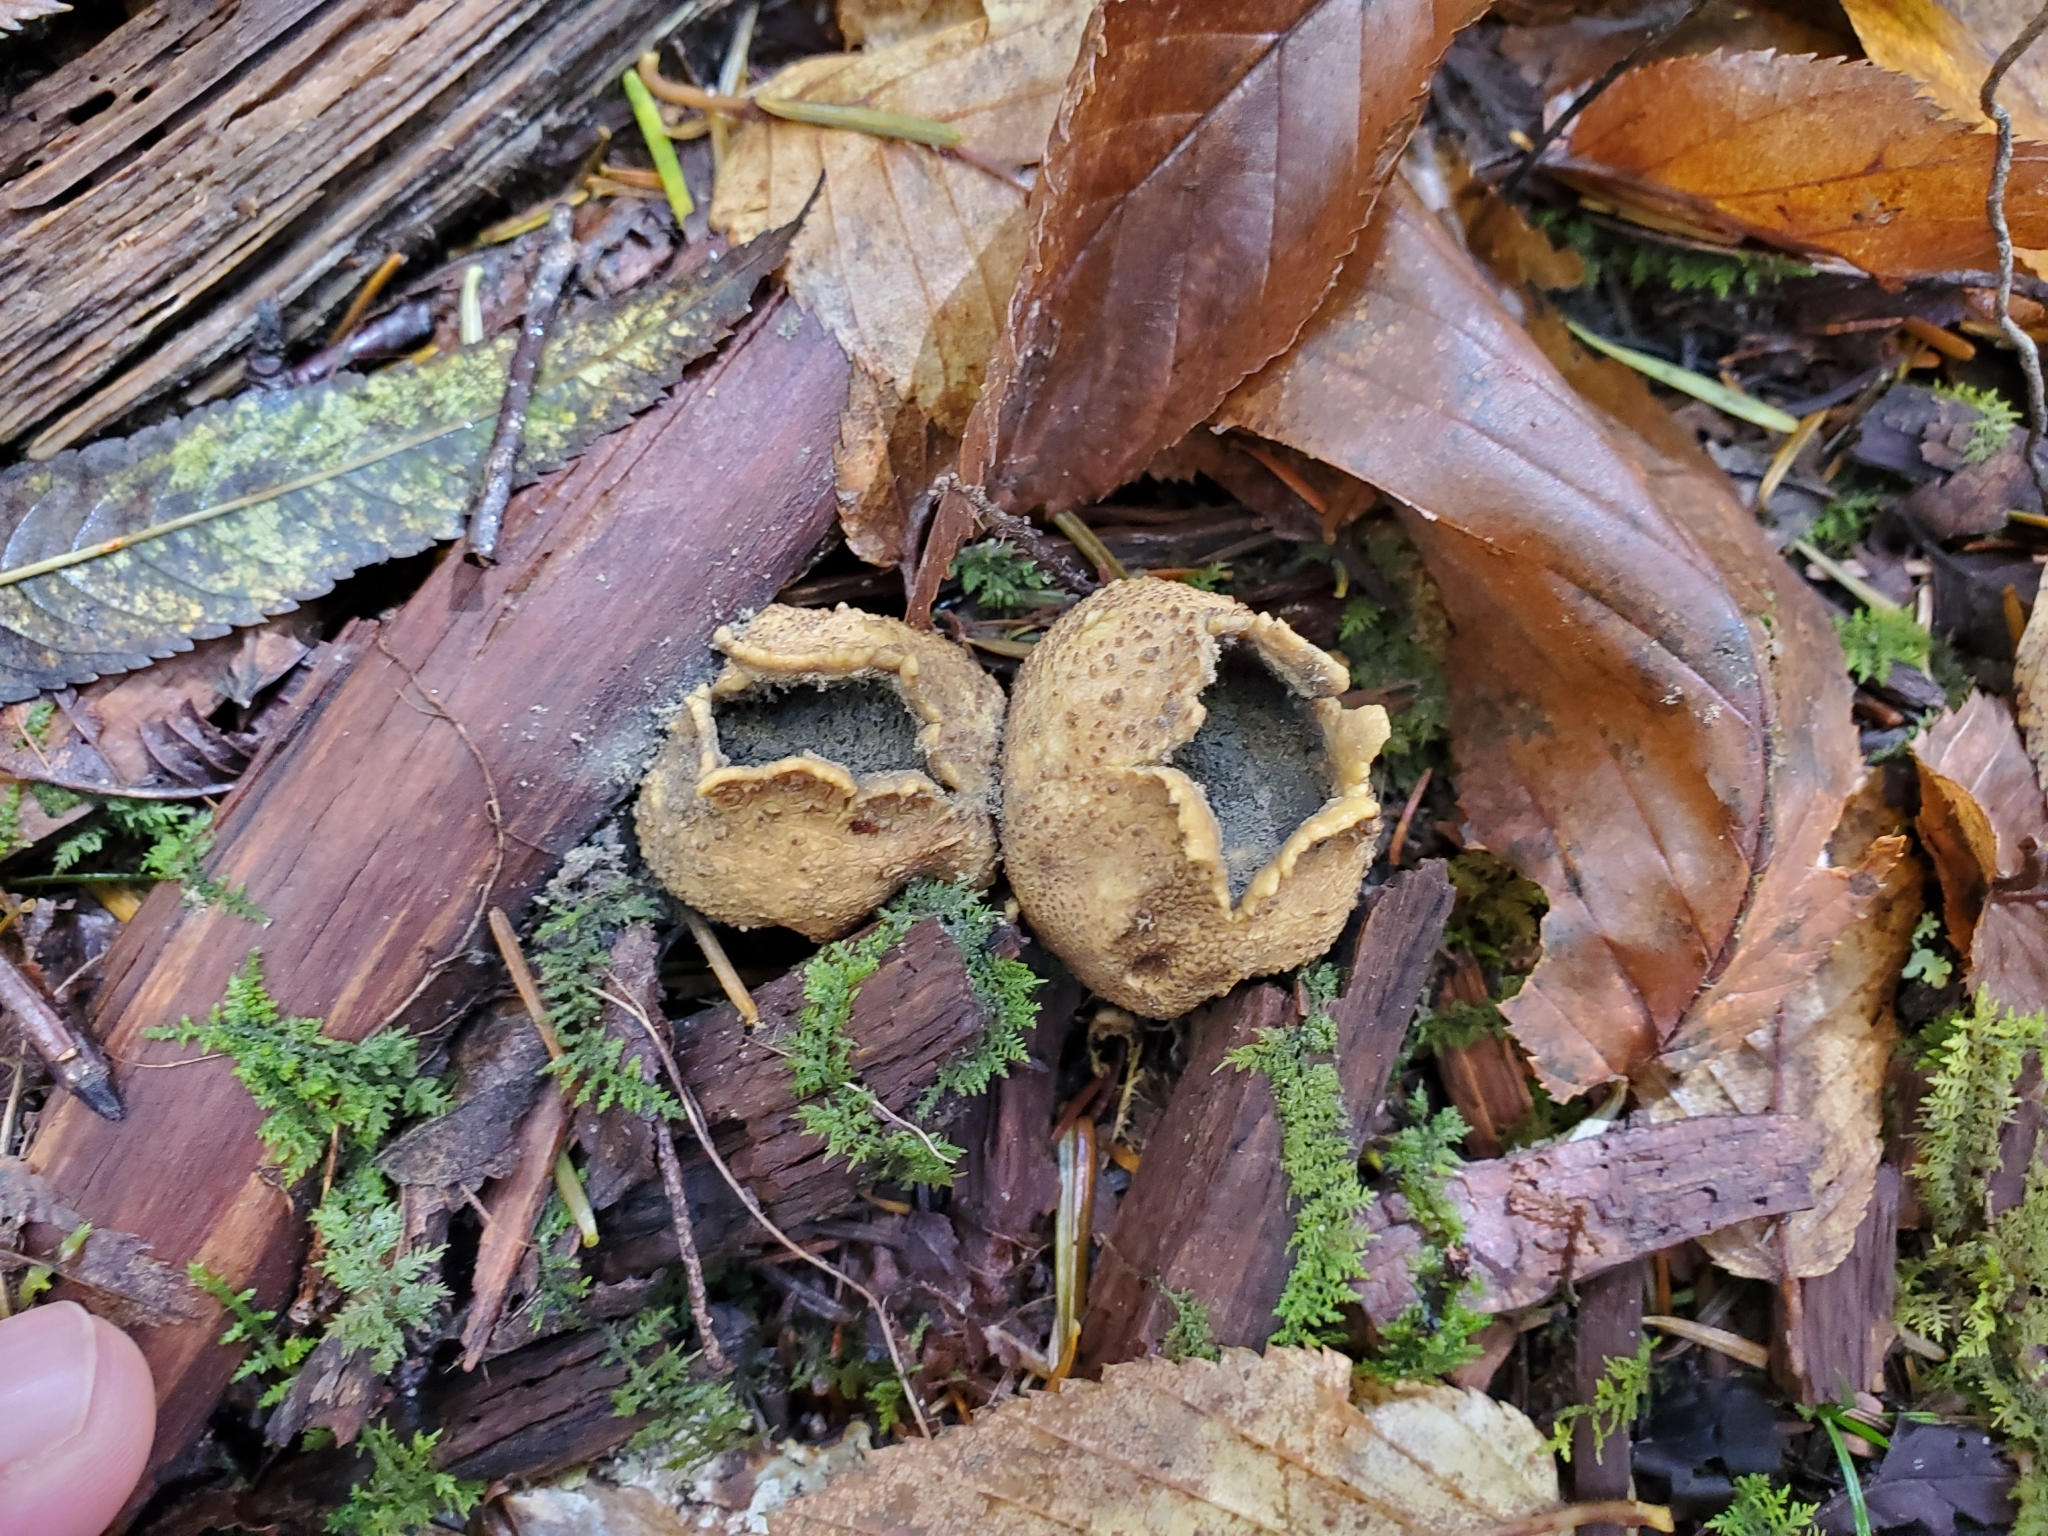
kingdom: Fungi
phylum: Basidiomycota
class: Agaricomycetes
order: Boletales
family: Sclerodermataceae
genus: Scleroderma
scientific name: Scleroderma citrinum
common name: Common earthball
